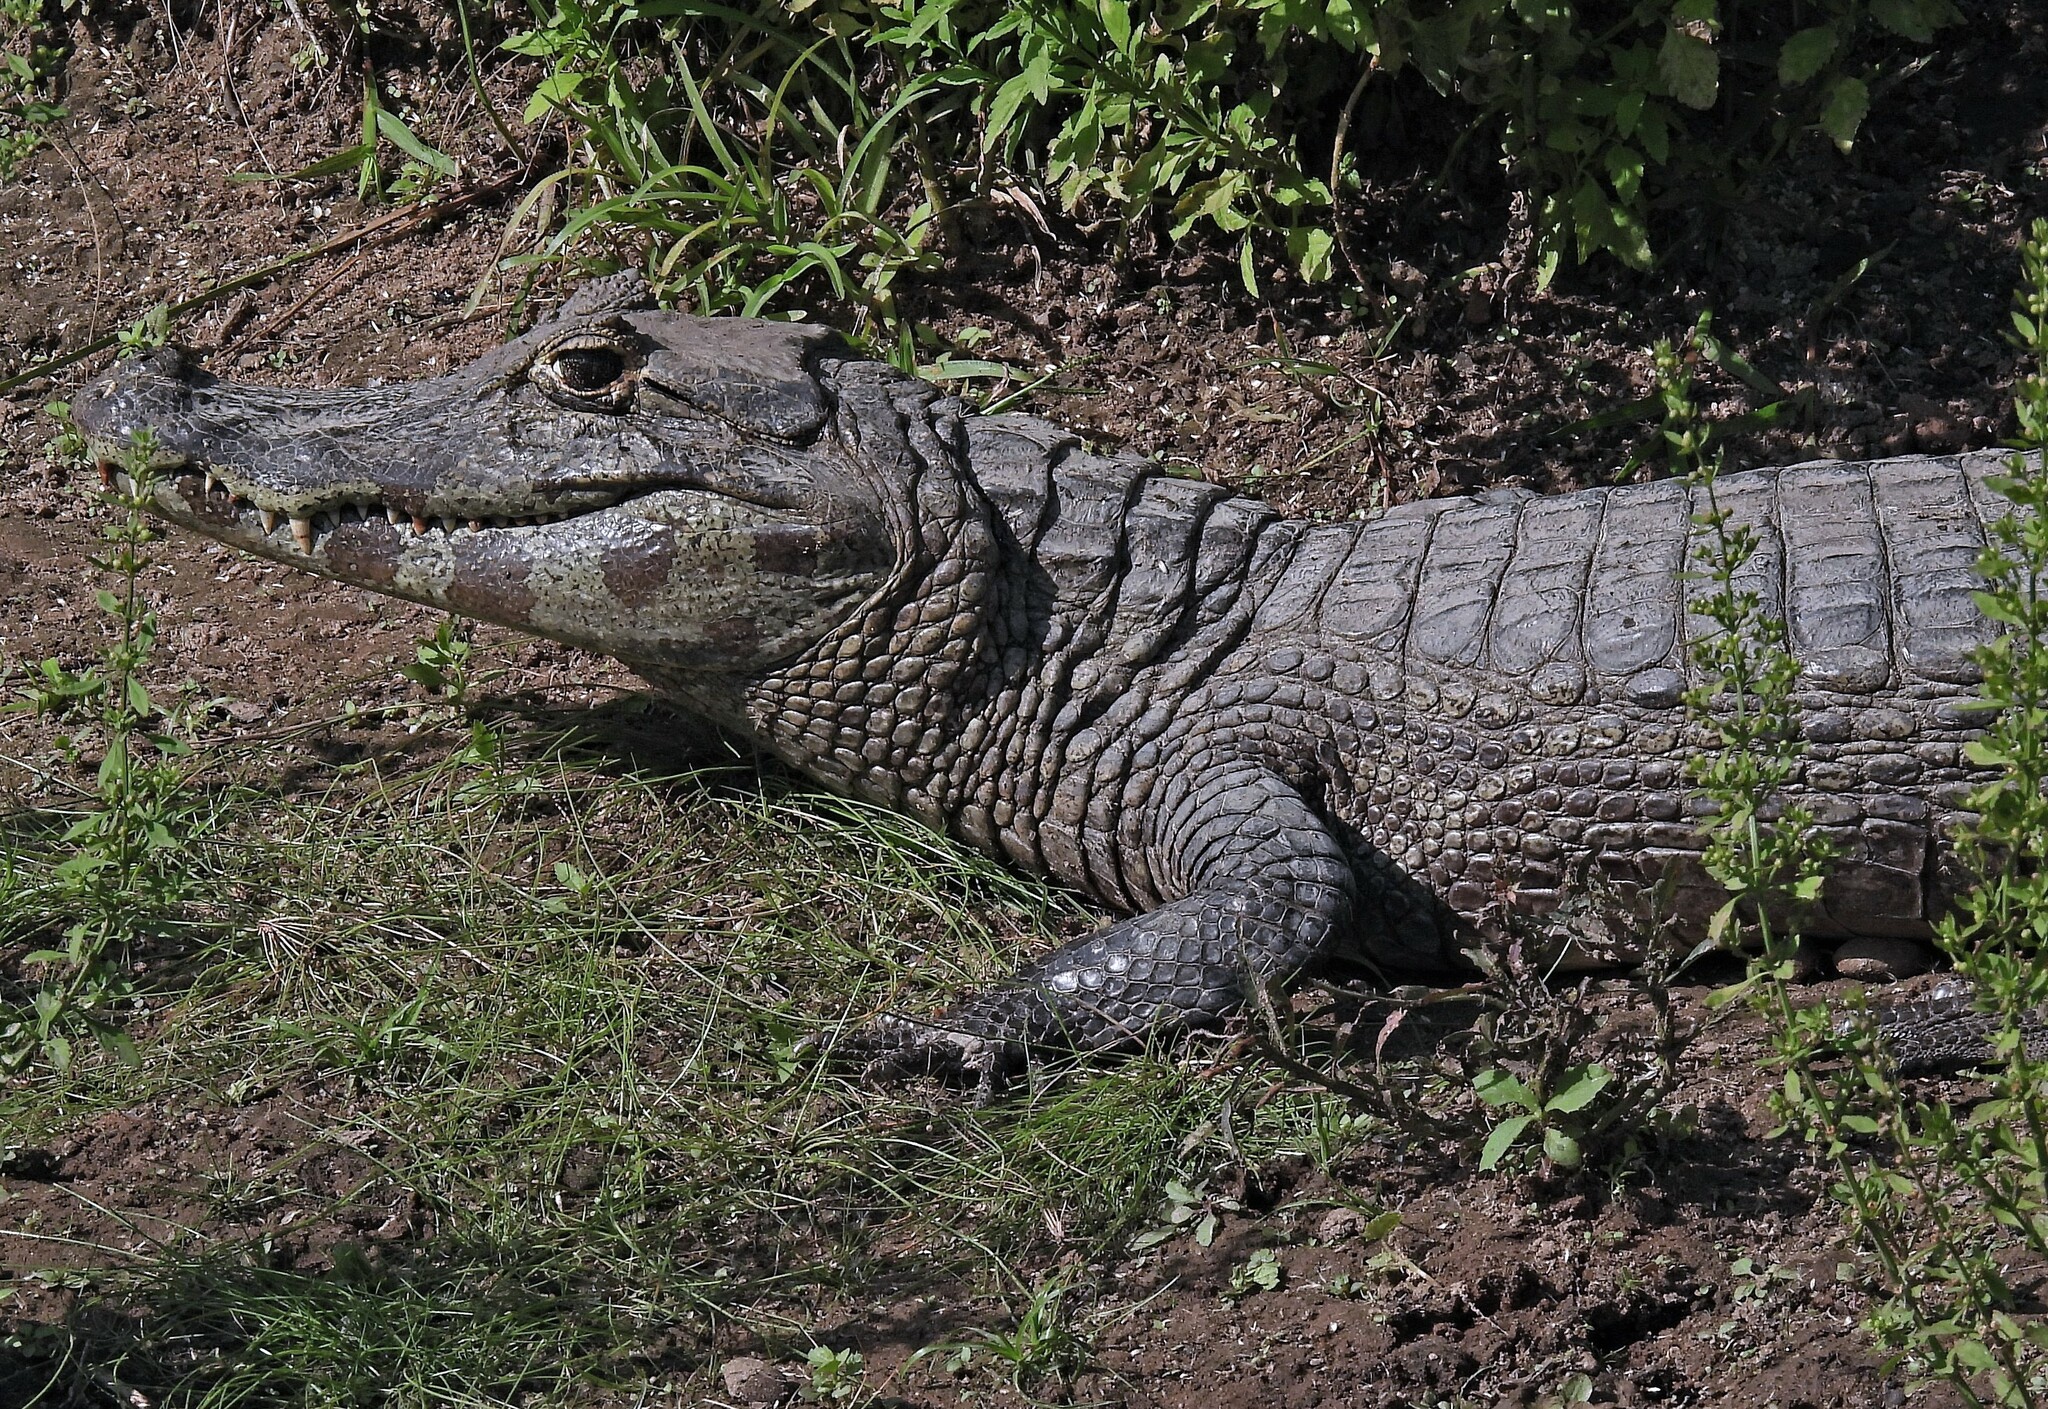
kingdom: Animalia
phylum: Chordata
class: Crocodylia
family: Alligatoridae
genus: Caiman
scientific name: Caiman yacare
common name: Yacare caiman
